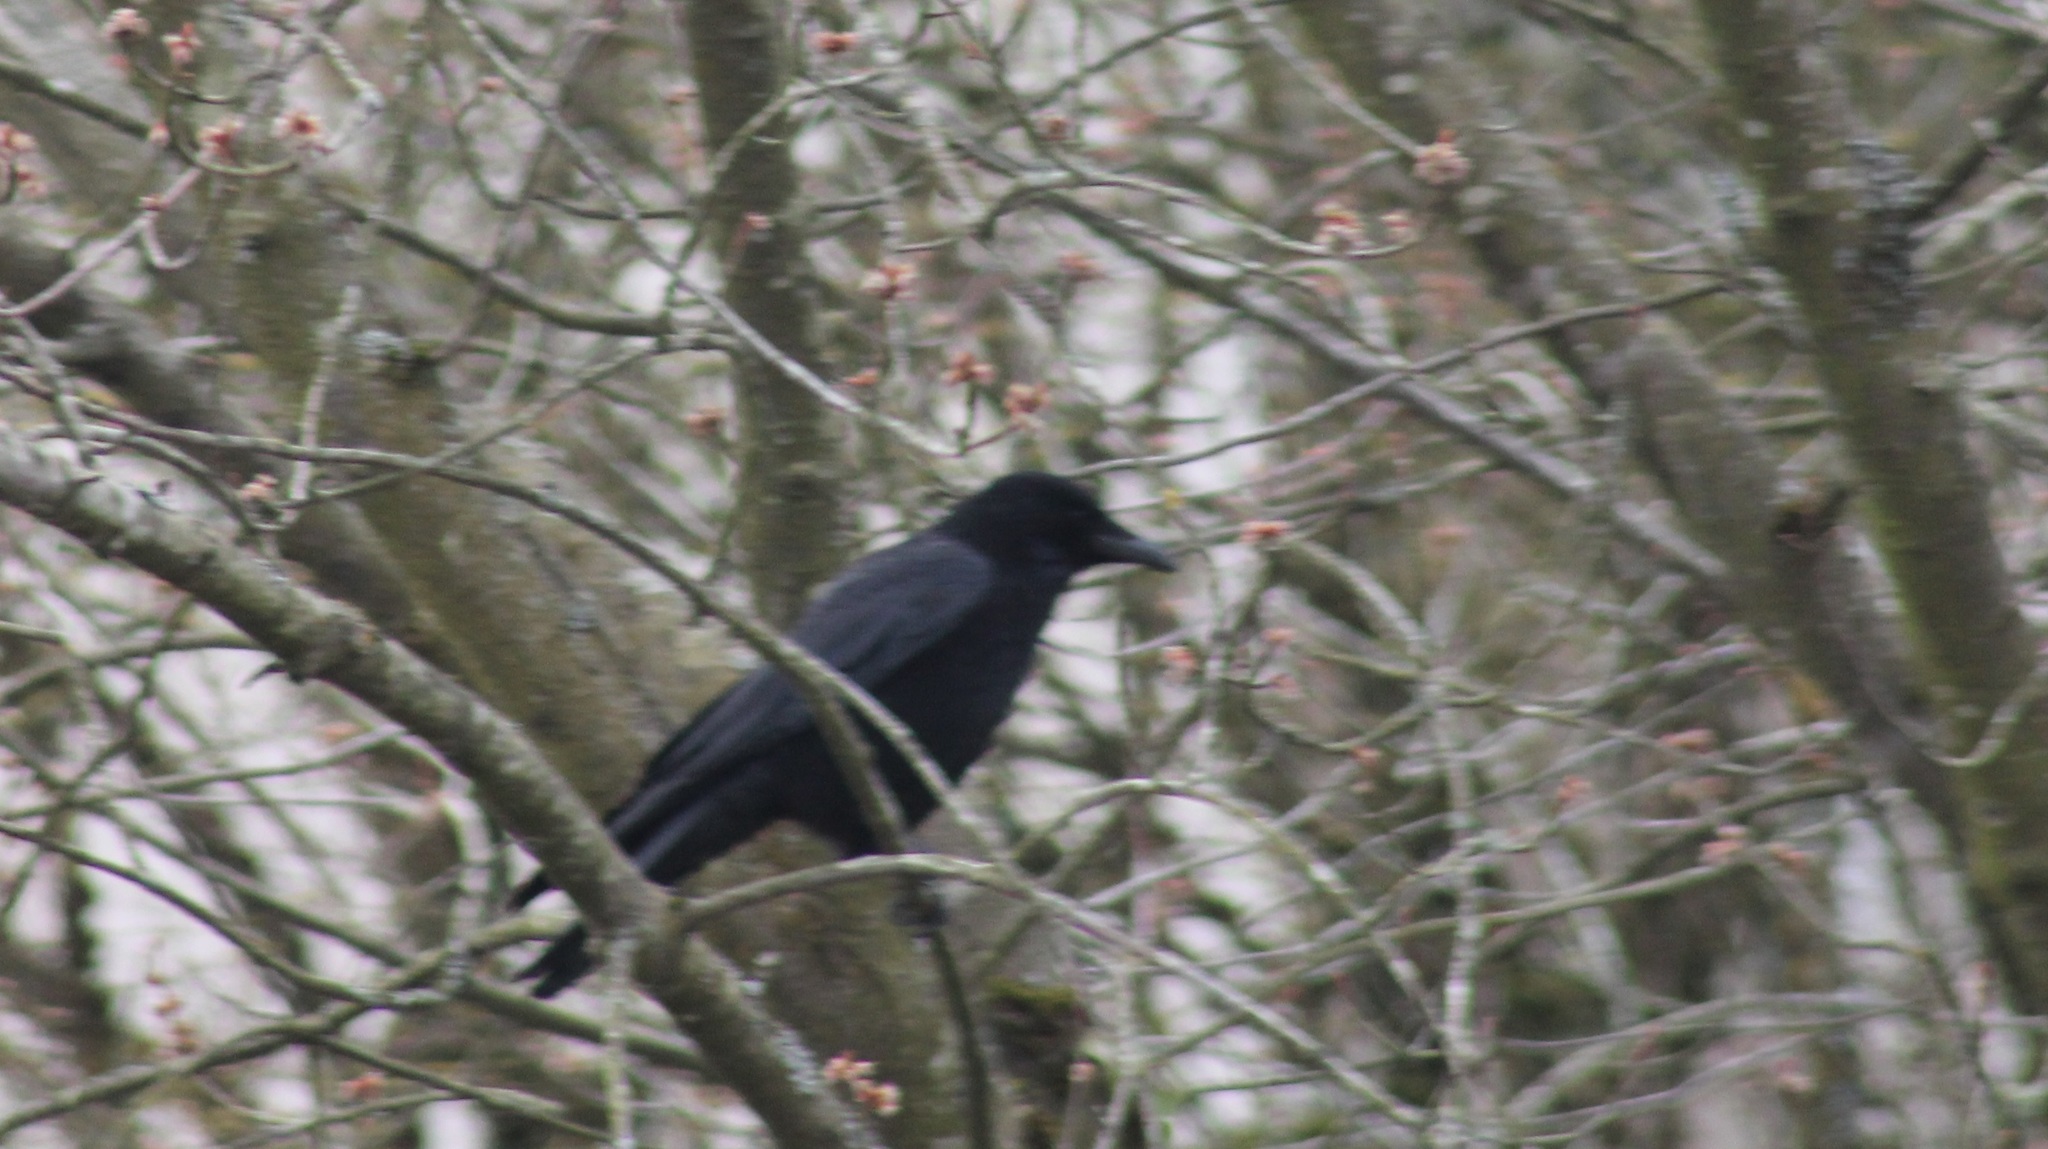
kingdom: Animalia
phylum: Chordata
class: Aves
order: Passeriformes
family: Corvidae
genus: Corvus
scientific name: Corvus corone
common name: Carrion crow
